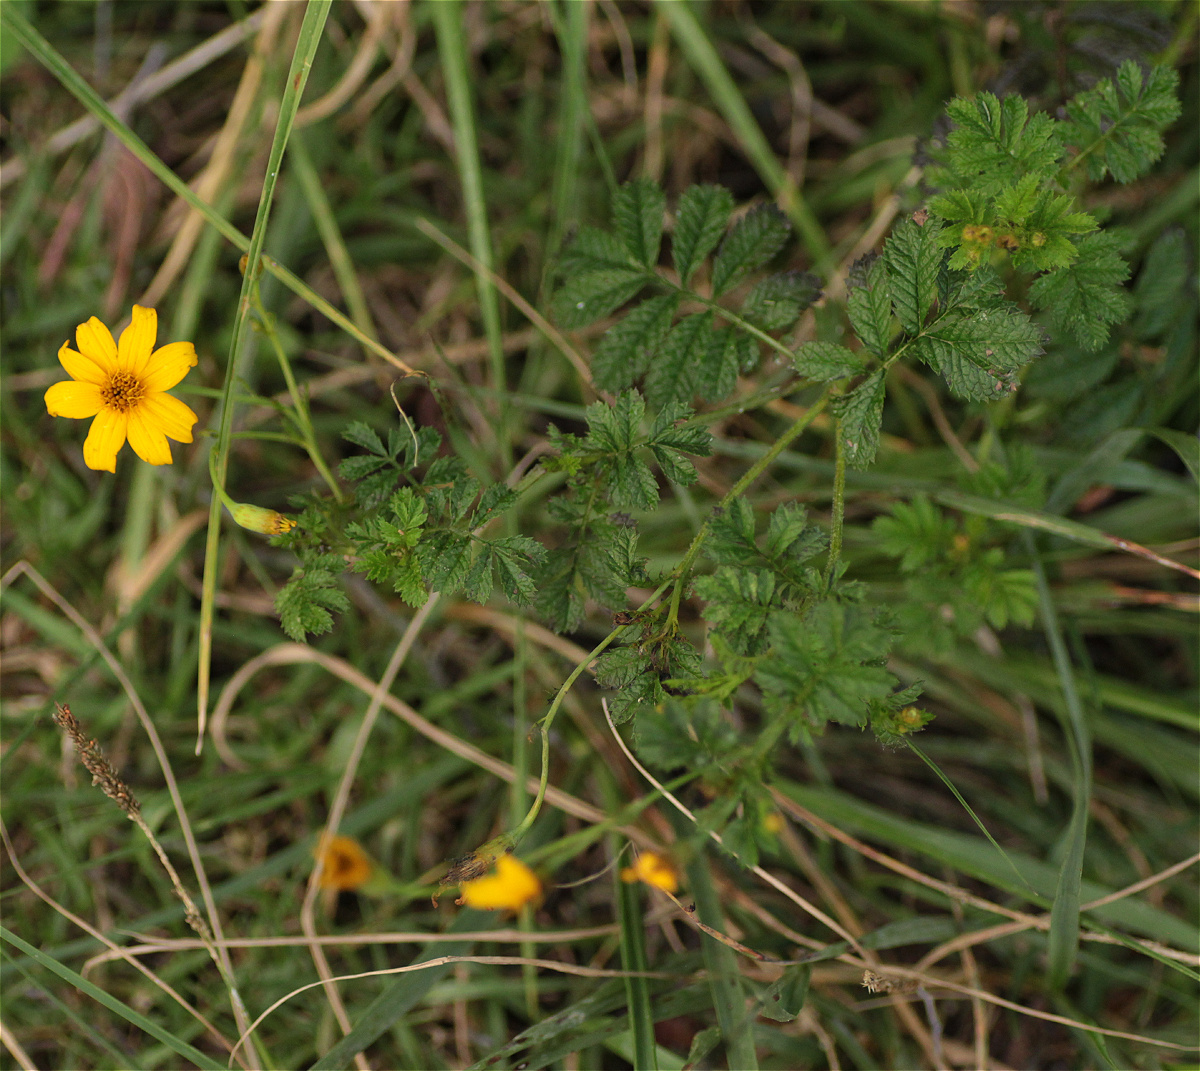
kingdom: Plantae
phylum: Tracheophyta
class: Magnoliopsida
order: Asterales
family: Asteraceae
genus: Tagetes
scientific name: Tagetes zypaquirensis
